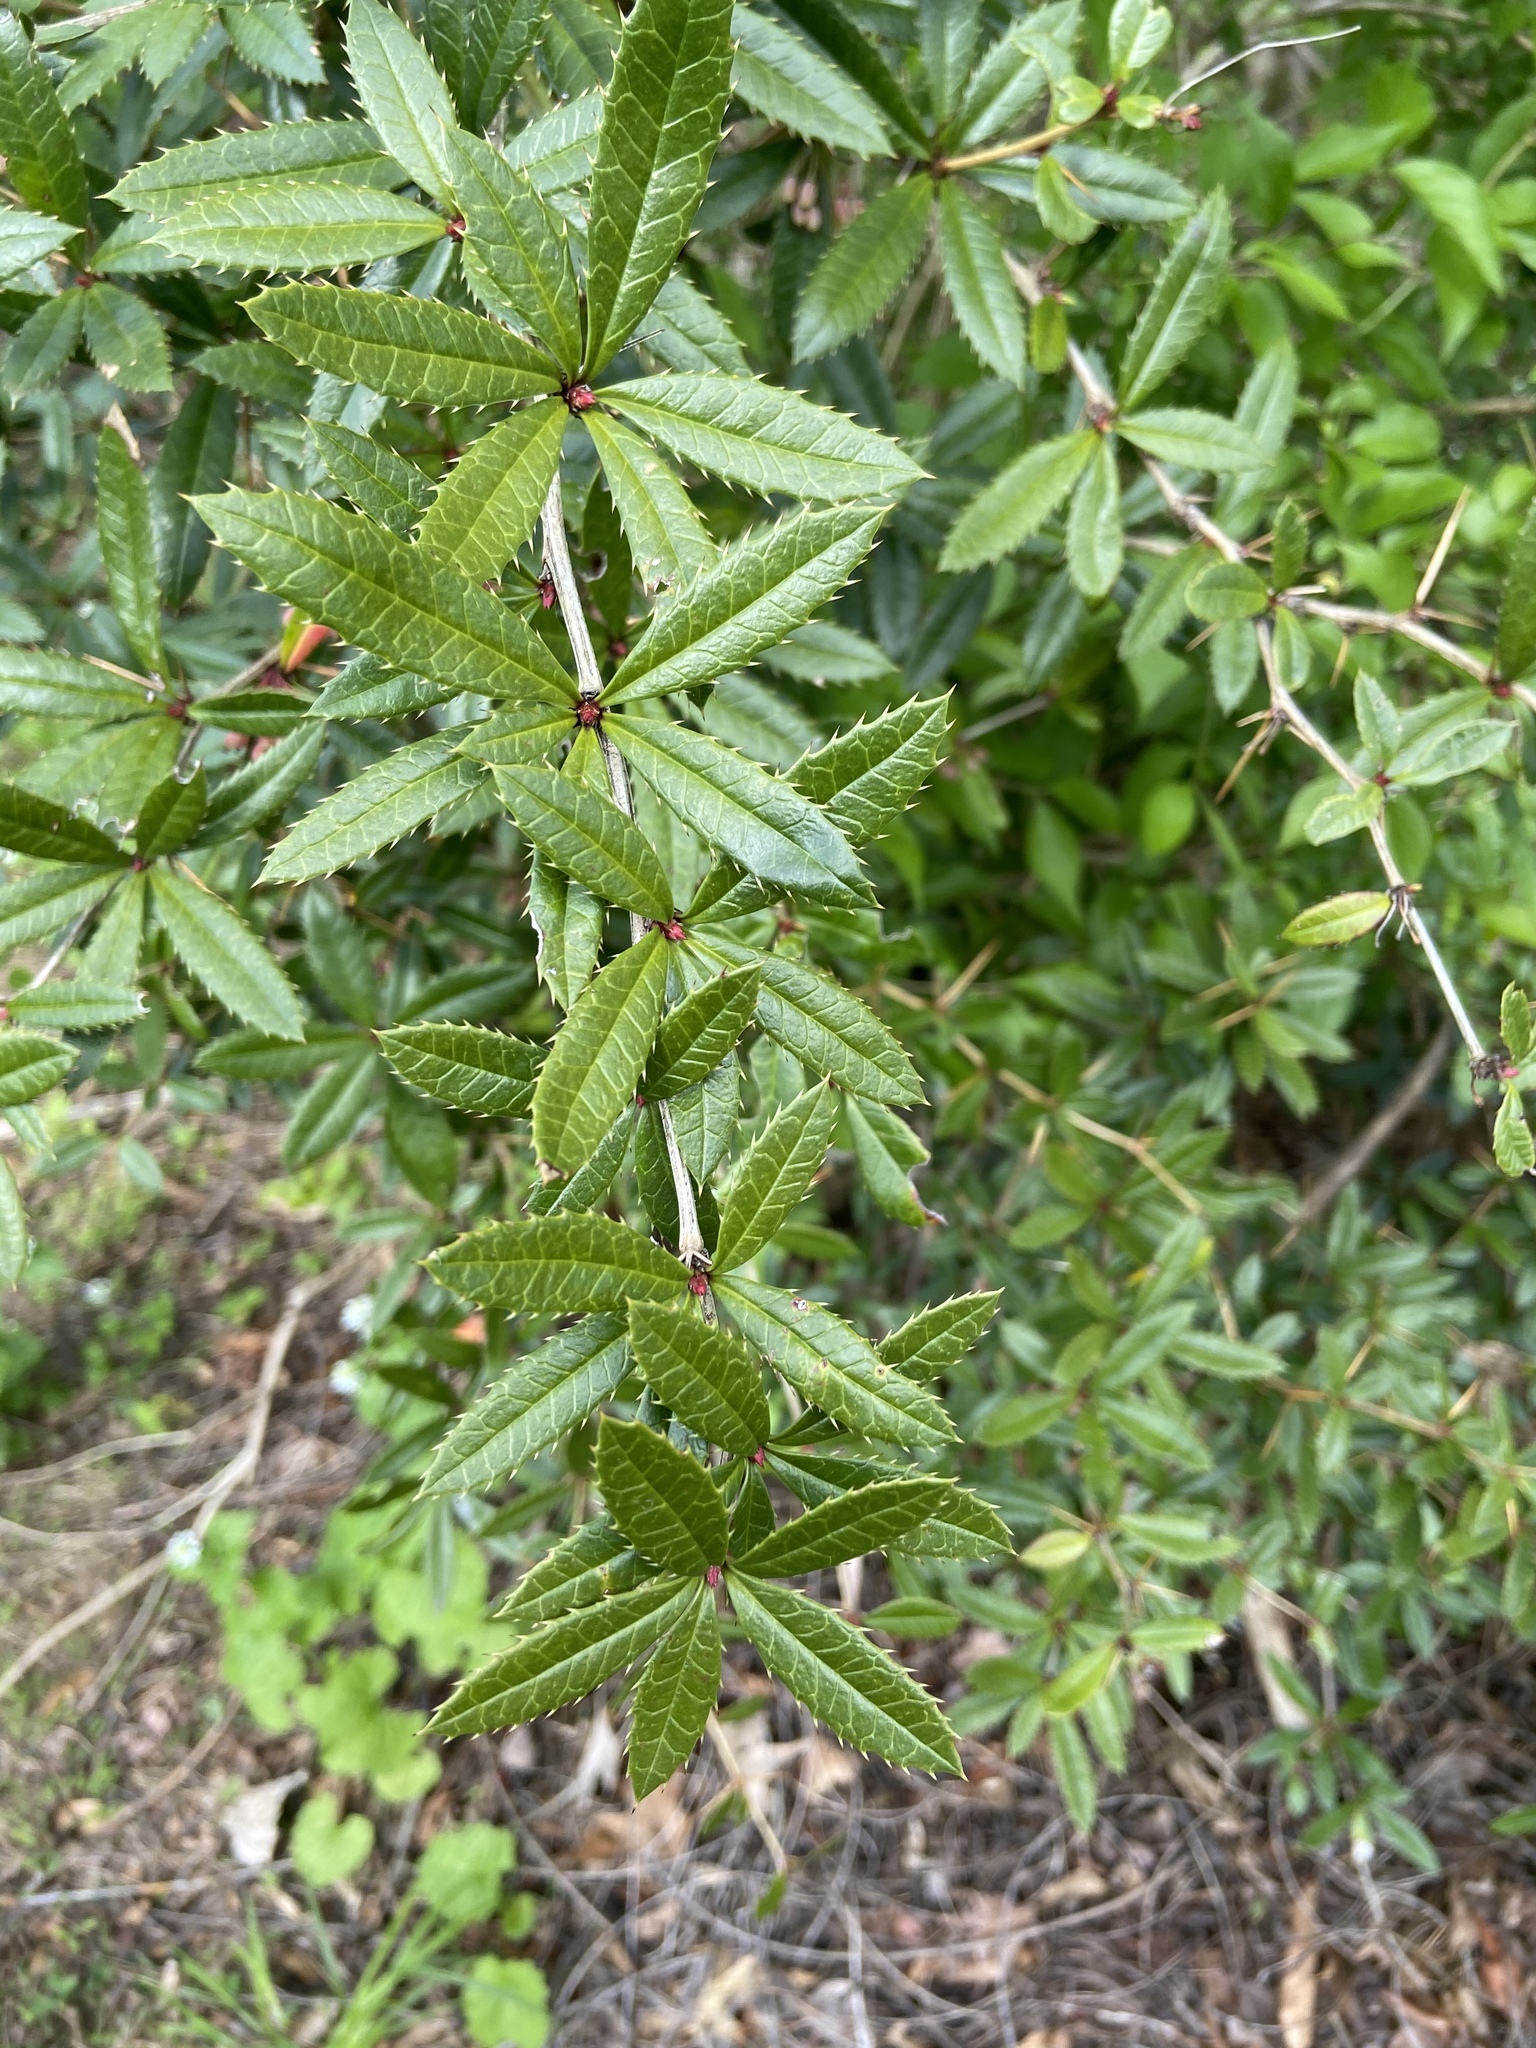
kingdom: Plantae
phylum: Tracheophyta
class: Magnoliopsida
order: Ranunculales
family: Berberidaceae
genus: Berberis
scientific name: Berberis julianae
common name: Wintergreen barberry
